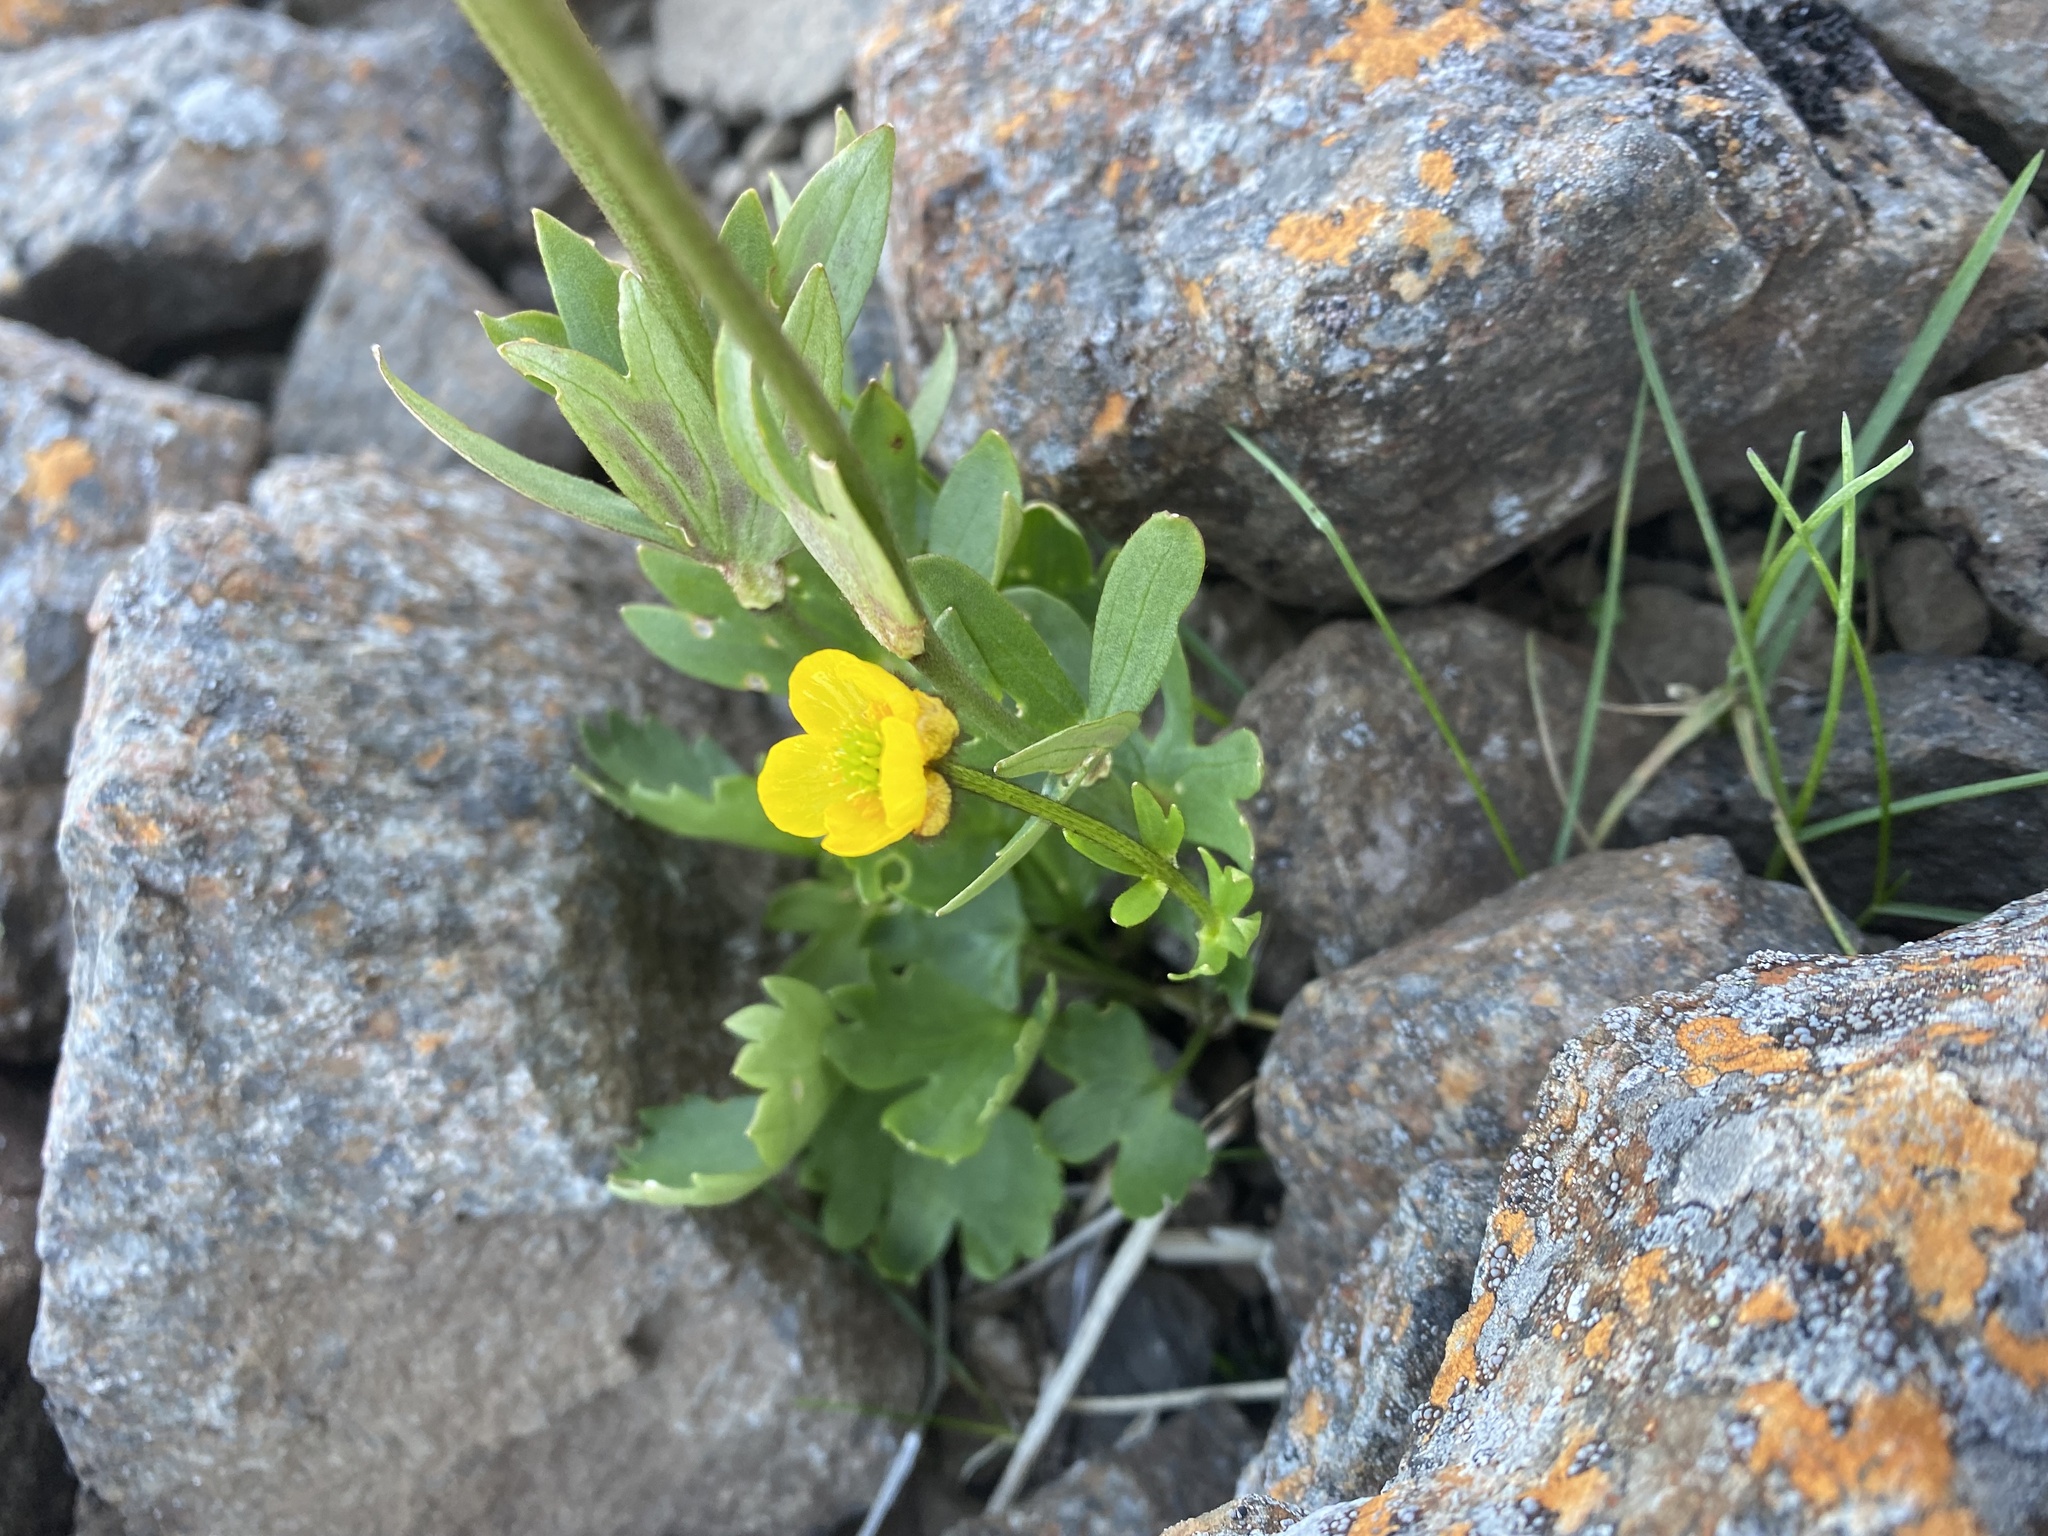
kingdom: Plantae
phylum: Tracheophyta
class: Magnoliopsida
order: Ranunculales
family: Ranunculaceae
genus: Ranunculus
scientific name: Ranunculus sulphureus
